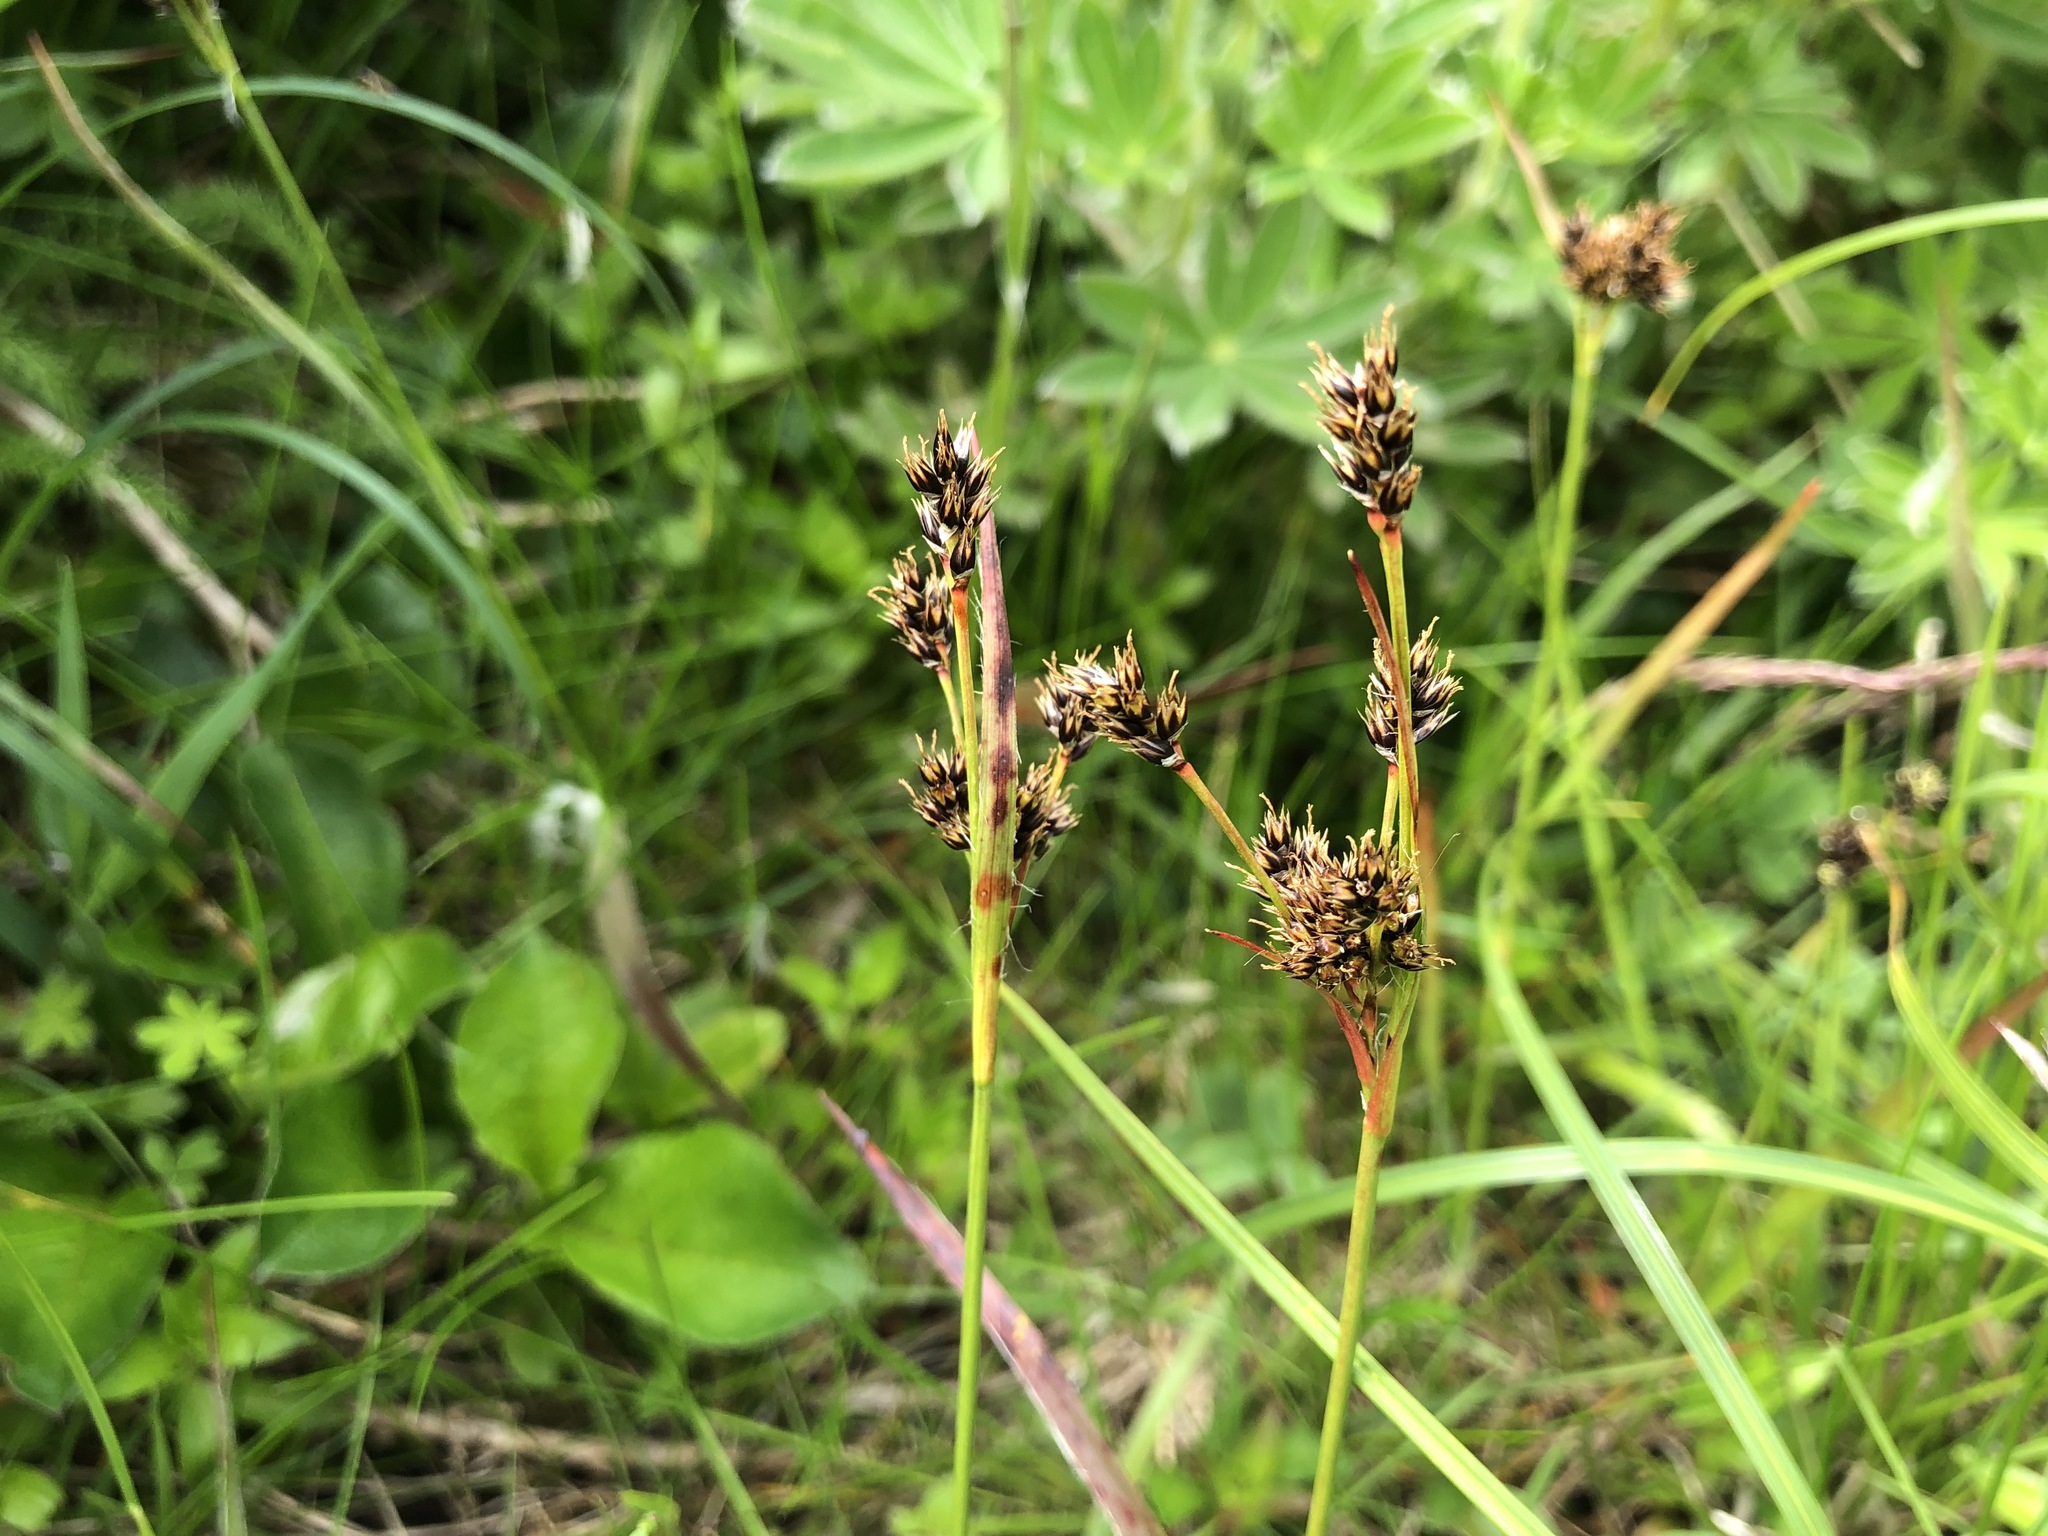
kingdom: Plantae
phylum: Tracheophyta
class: Liliopsida
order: Poales
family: Juncaceae
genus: Luzula
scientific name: Luzula multiflora
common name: Heath wood-rush
